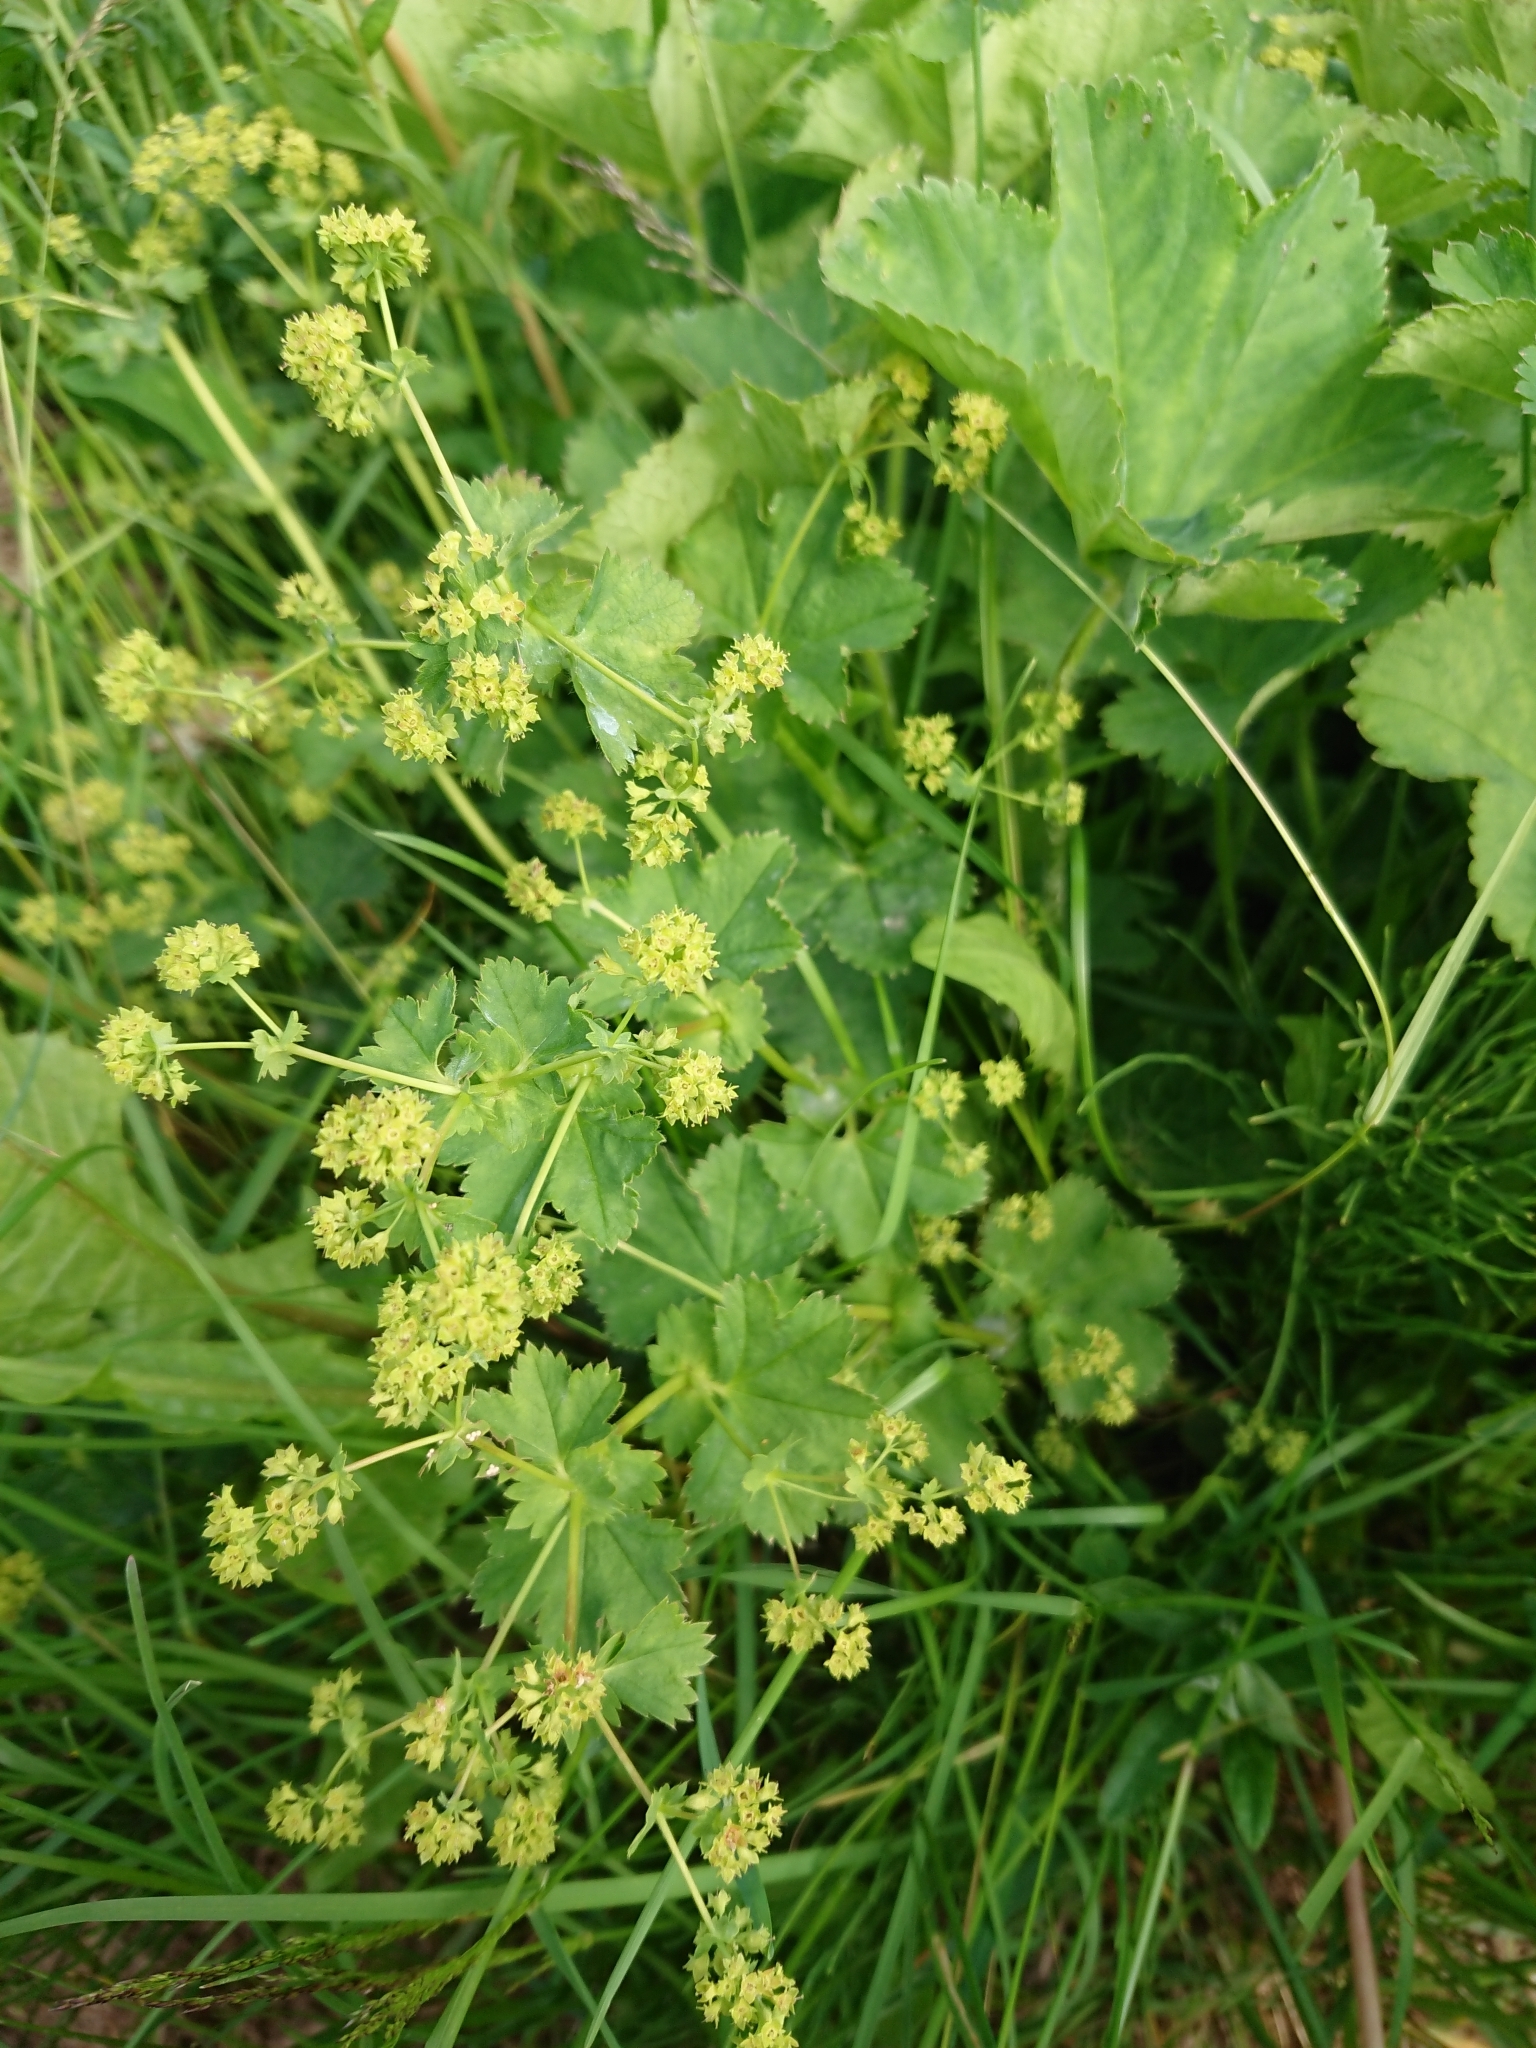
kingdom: Plantae
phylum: Tracheophyta
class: Magnoliopsida
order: Rosales
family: Rosaceae
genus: Alchemilla
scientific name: Alchemilla
